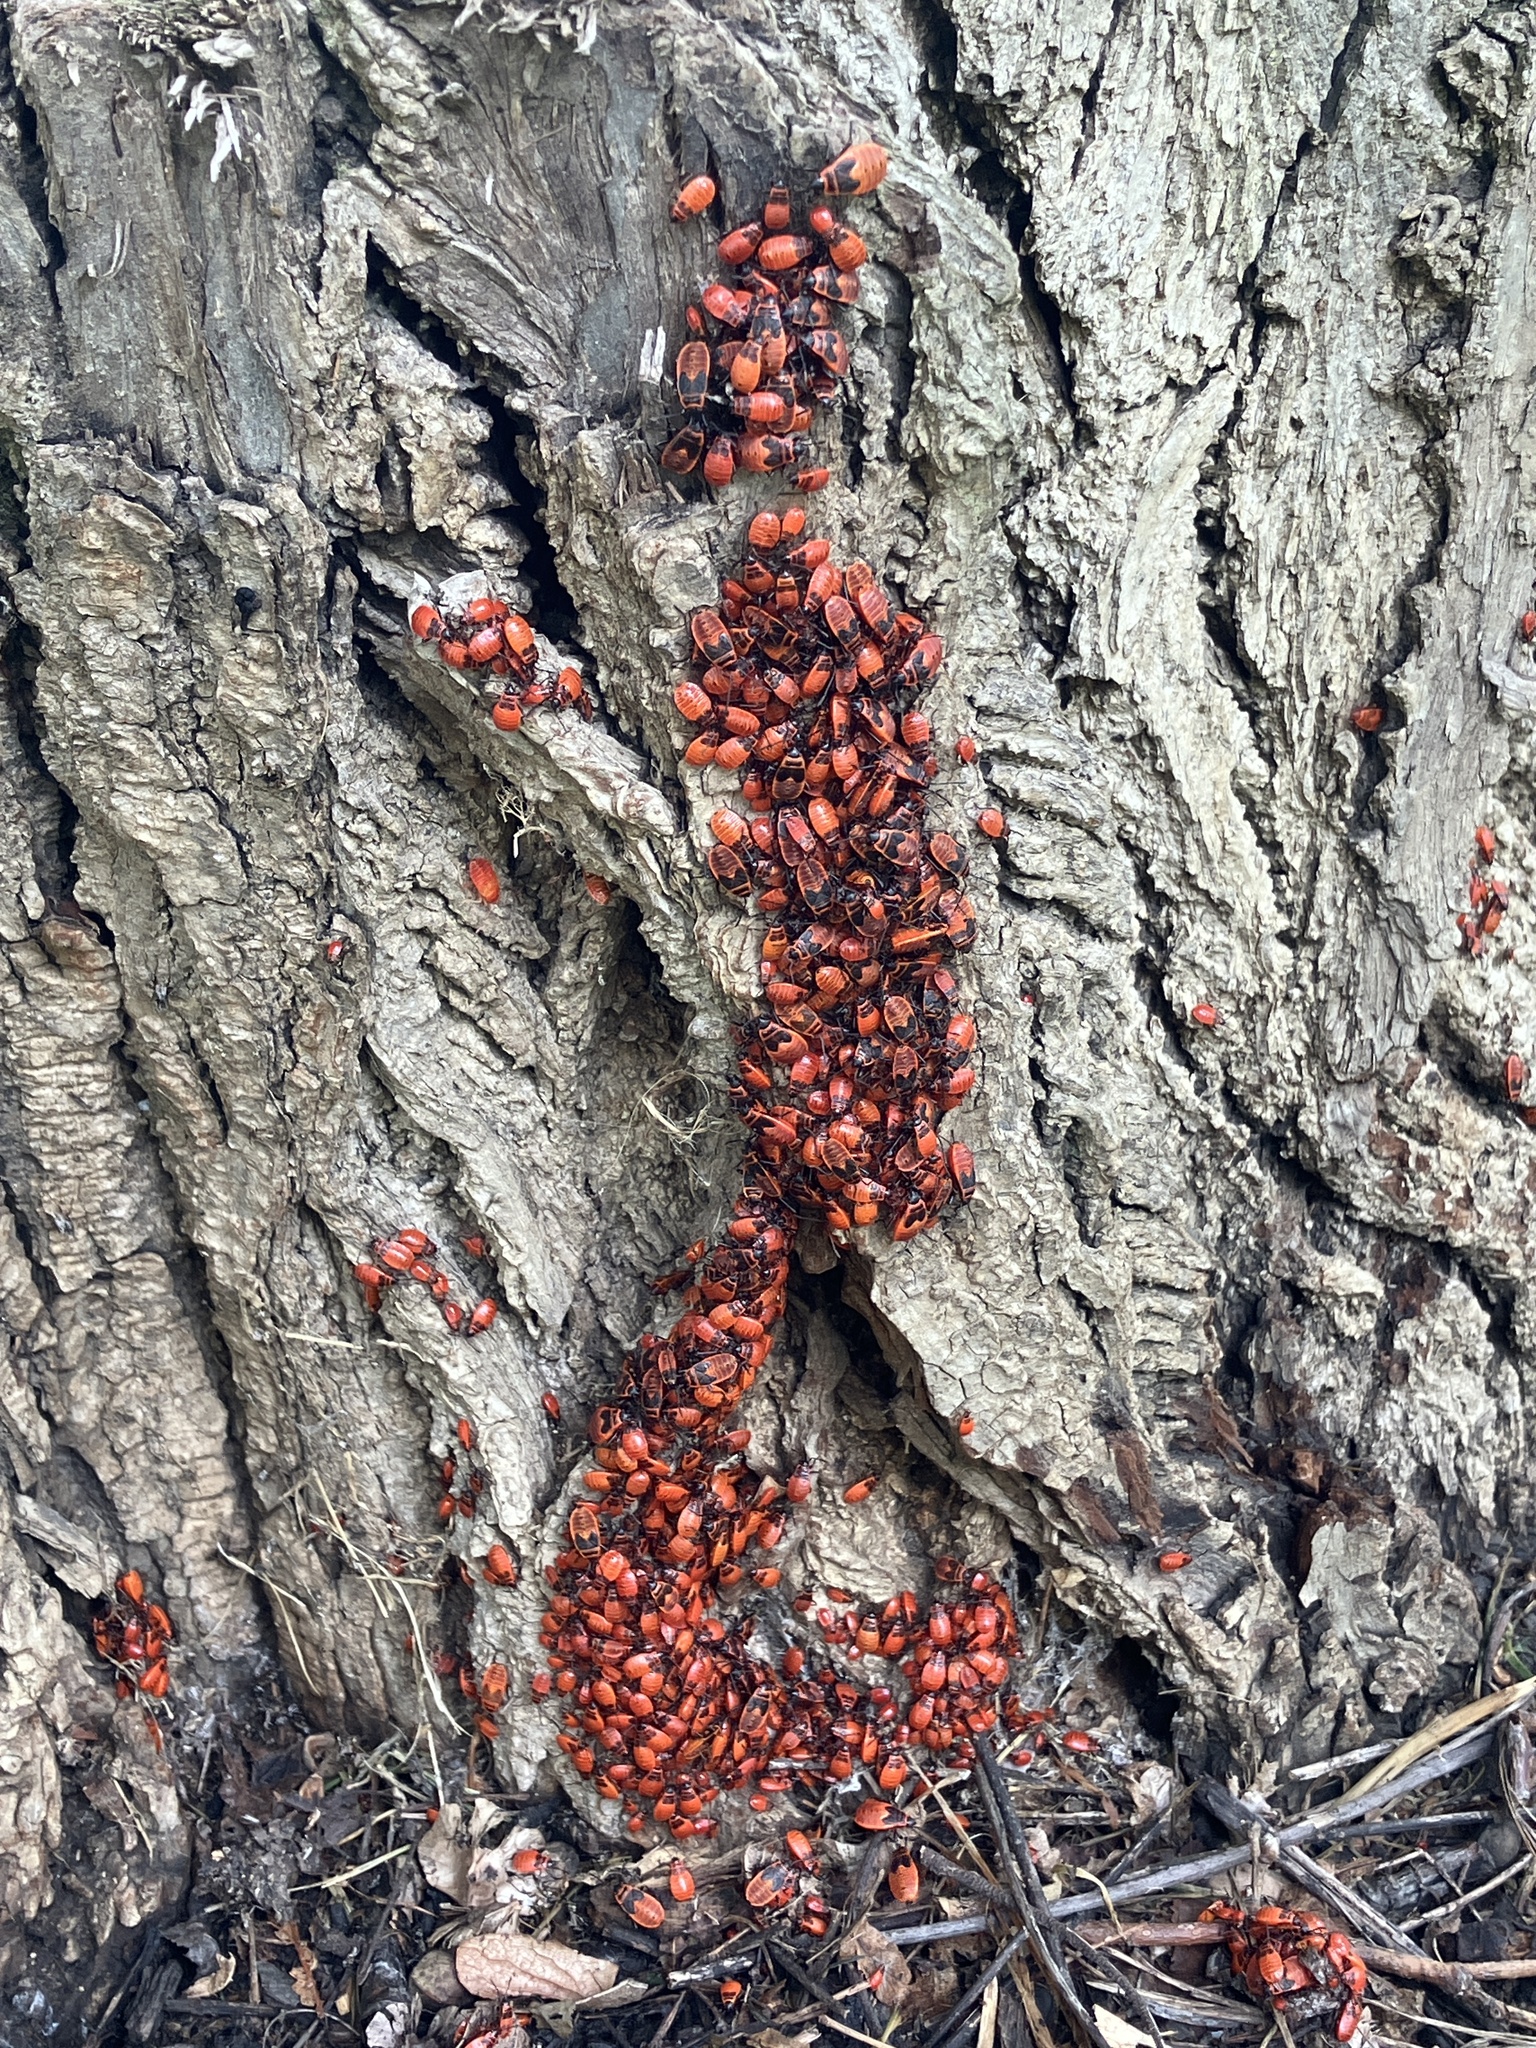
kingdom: Animalia
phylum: Arthropoda
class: Insecta
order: Hemiptera
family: Pyrrhocoridae
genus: Pyrrhocoris
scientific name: Pyrrhocoris apterus
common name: Firebug
